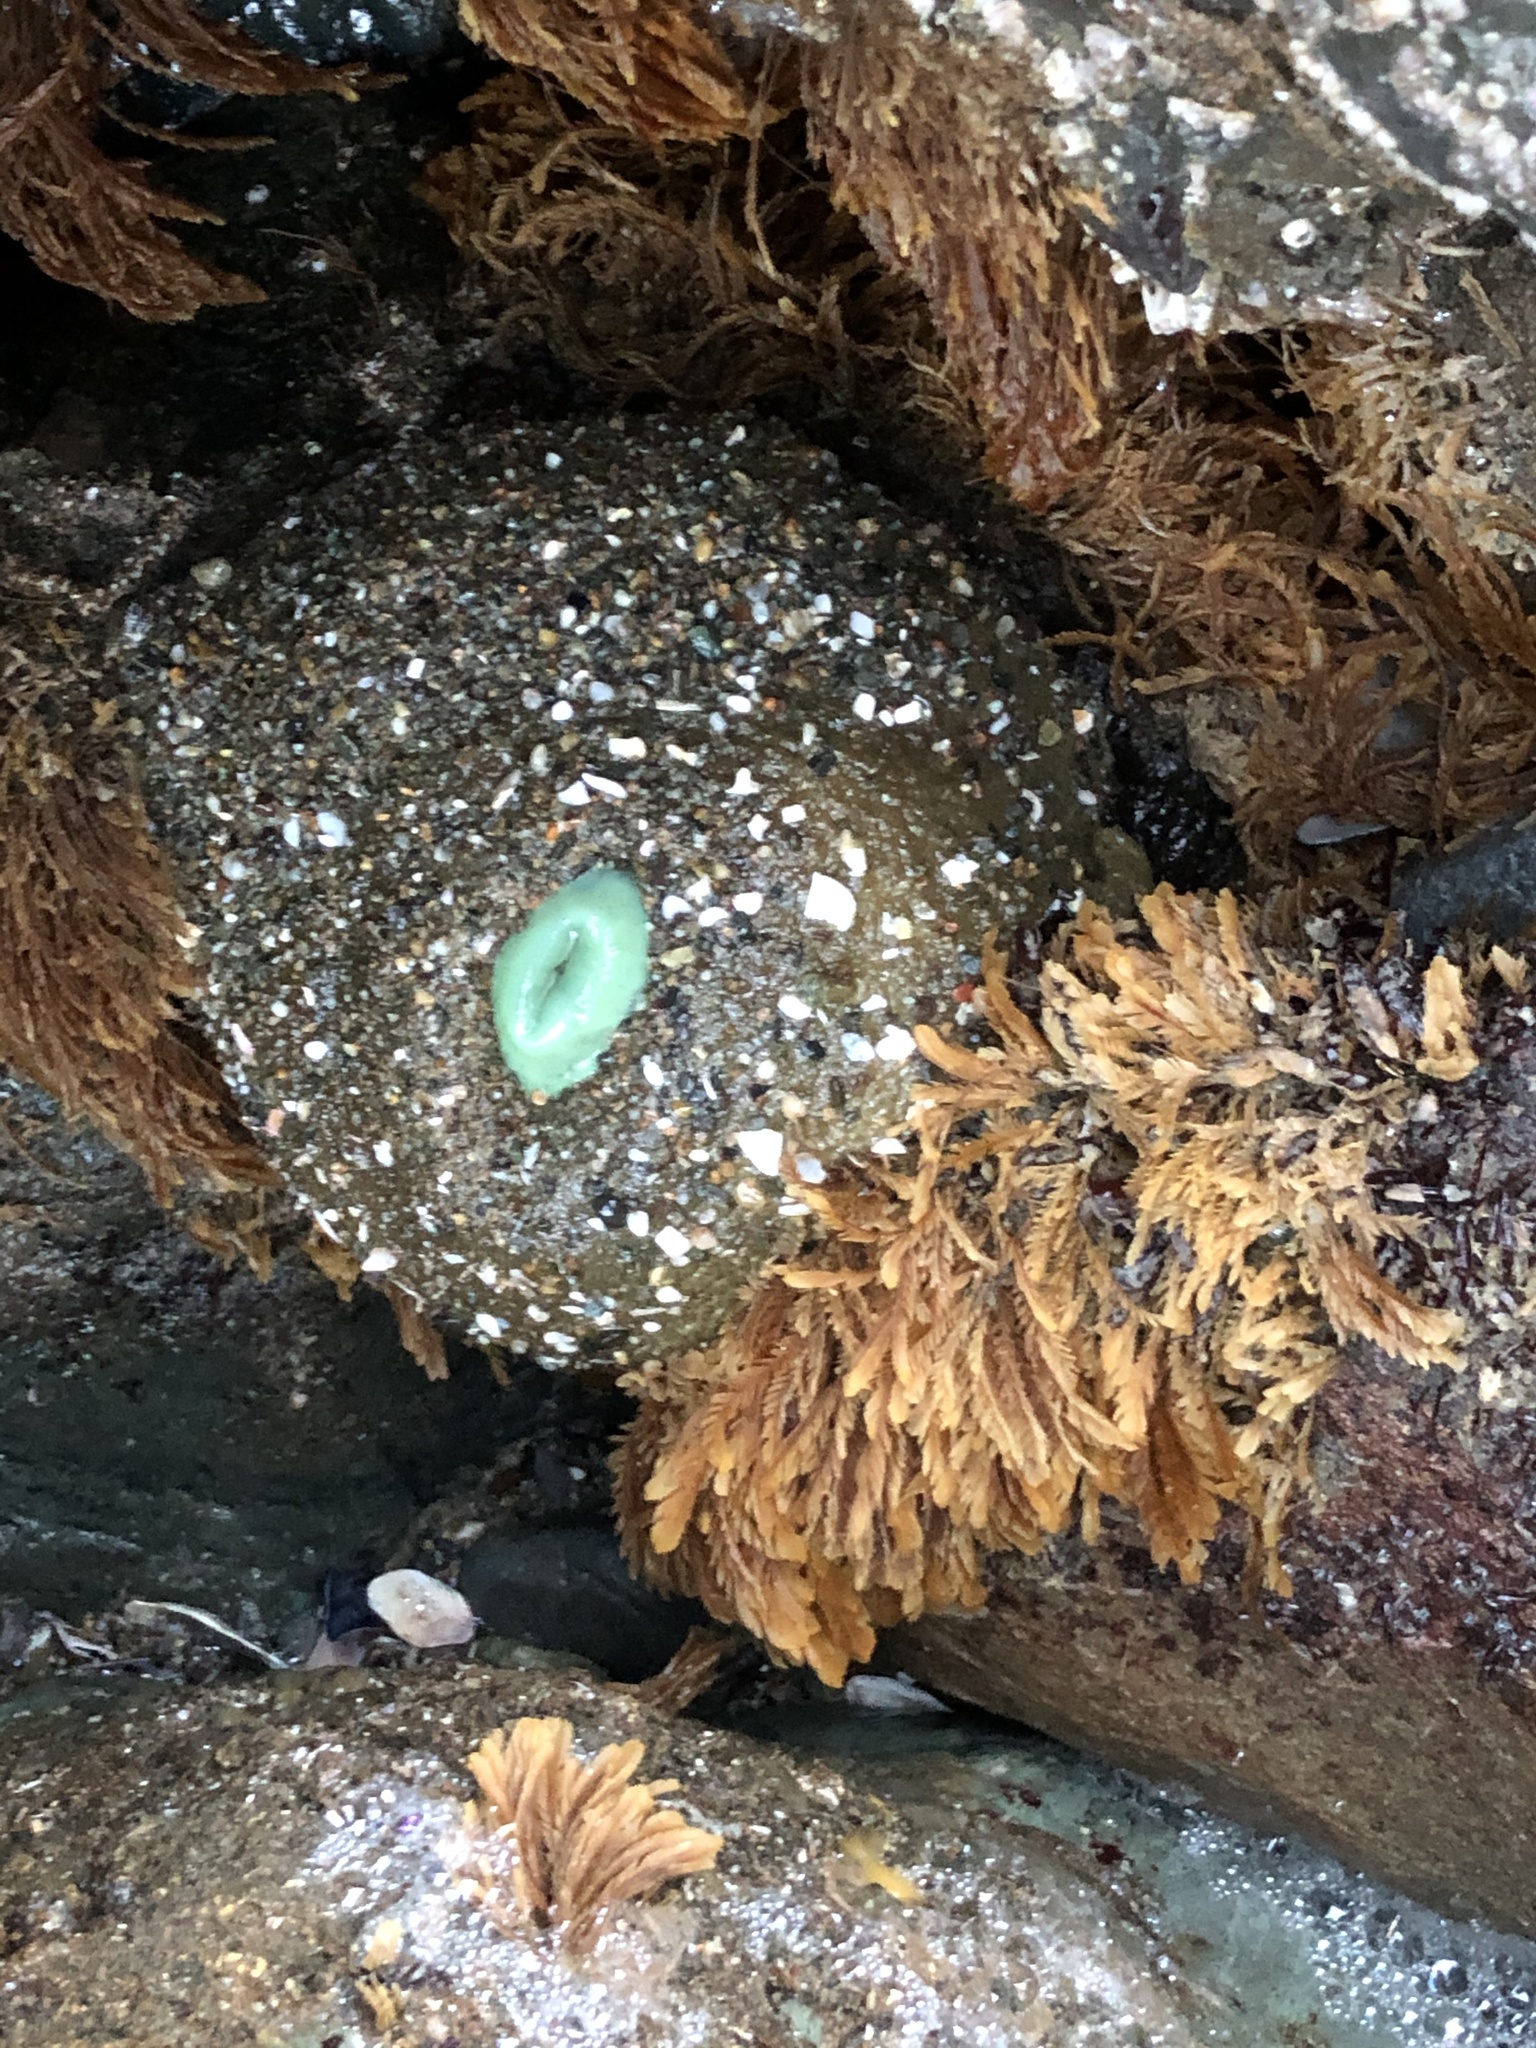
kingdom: Animalia
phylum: Cnidaria
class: Anthozoa
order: Actiniaria
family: Actiniidae
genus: Anthopleura
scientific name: Anthopleura xanthogrammica
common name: Giant green anemone
